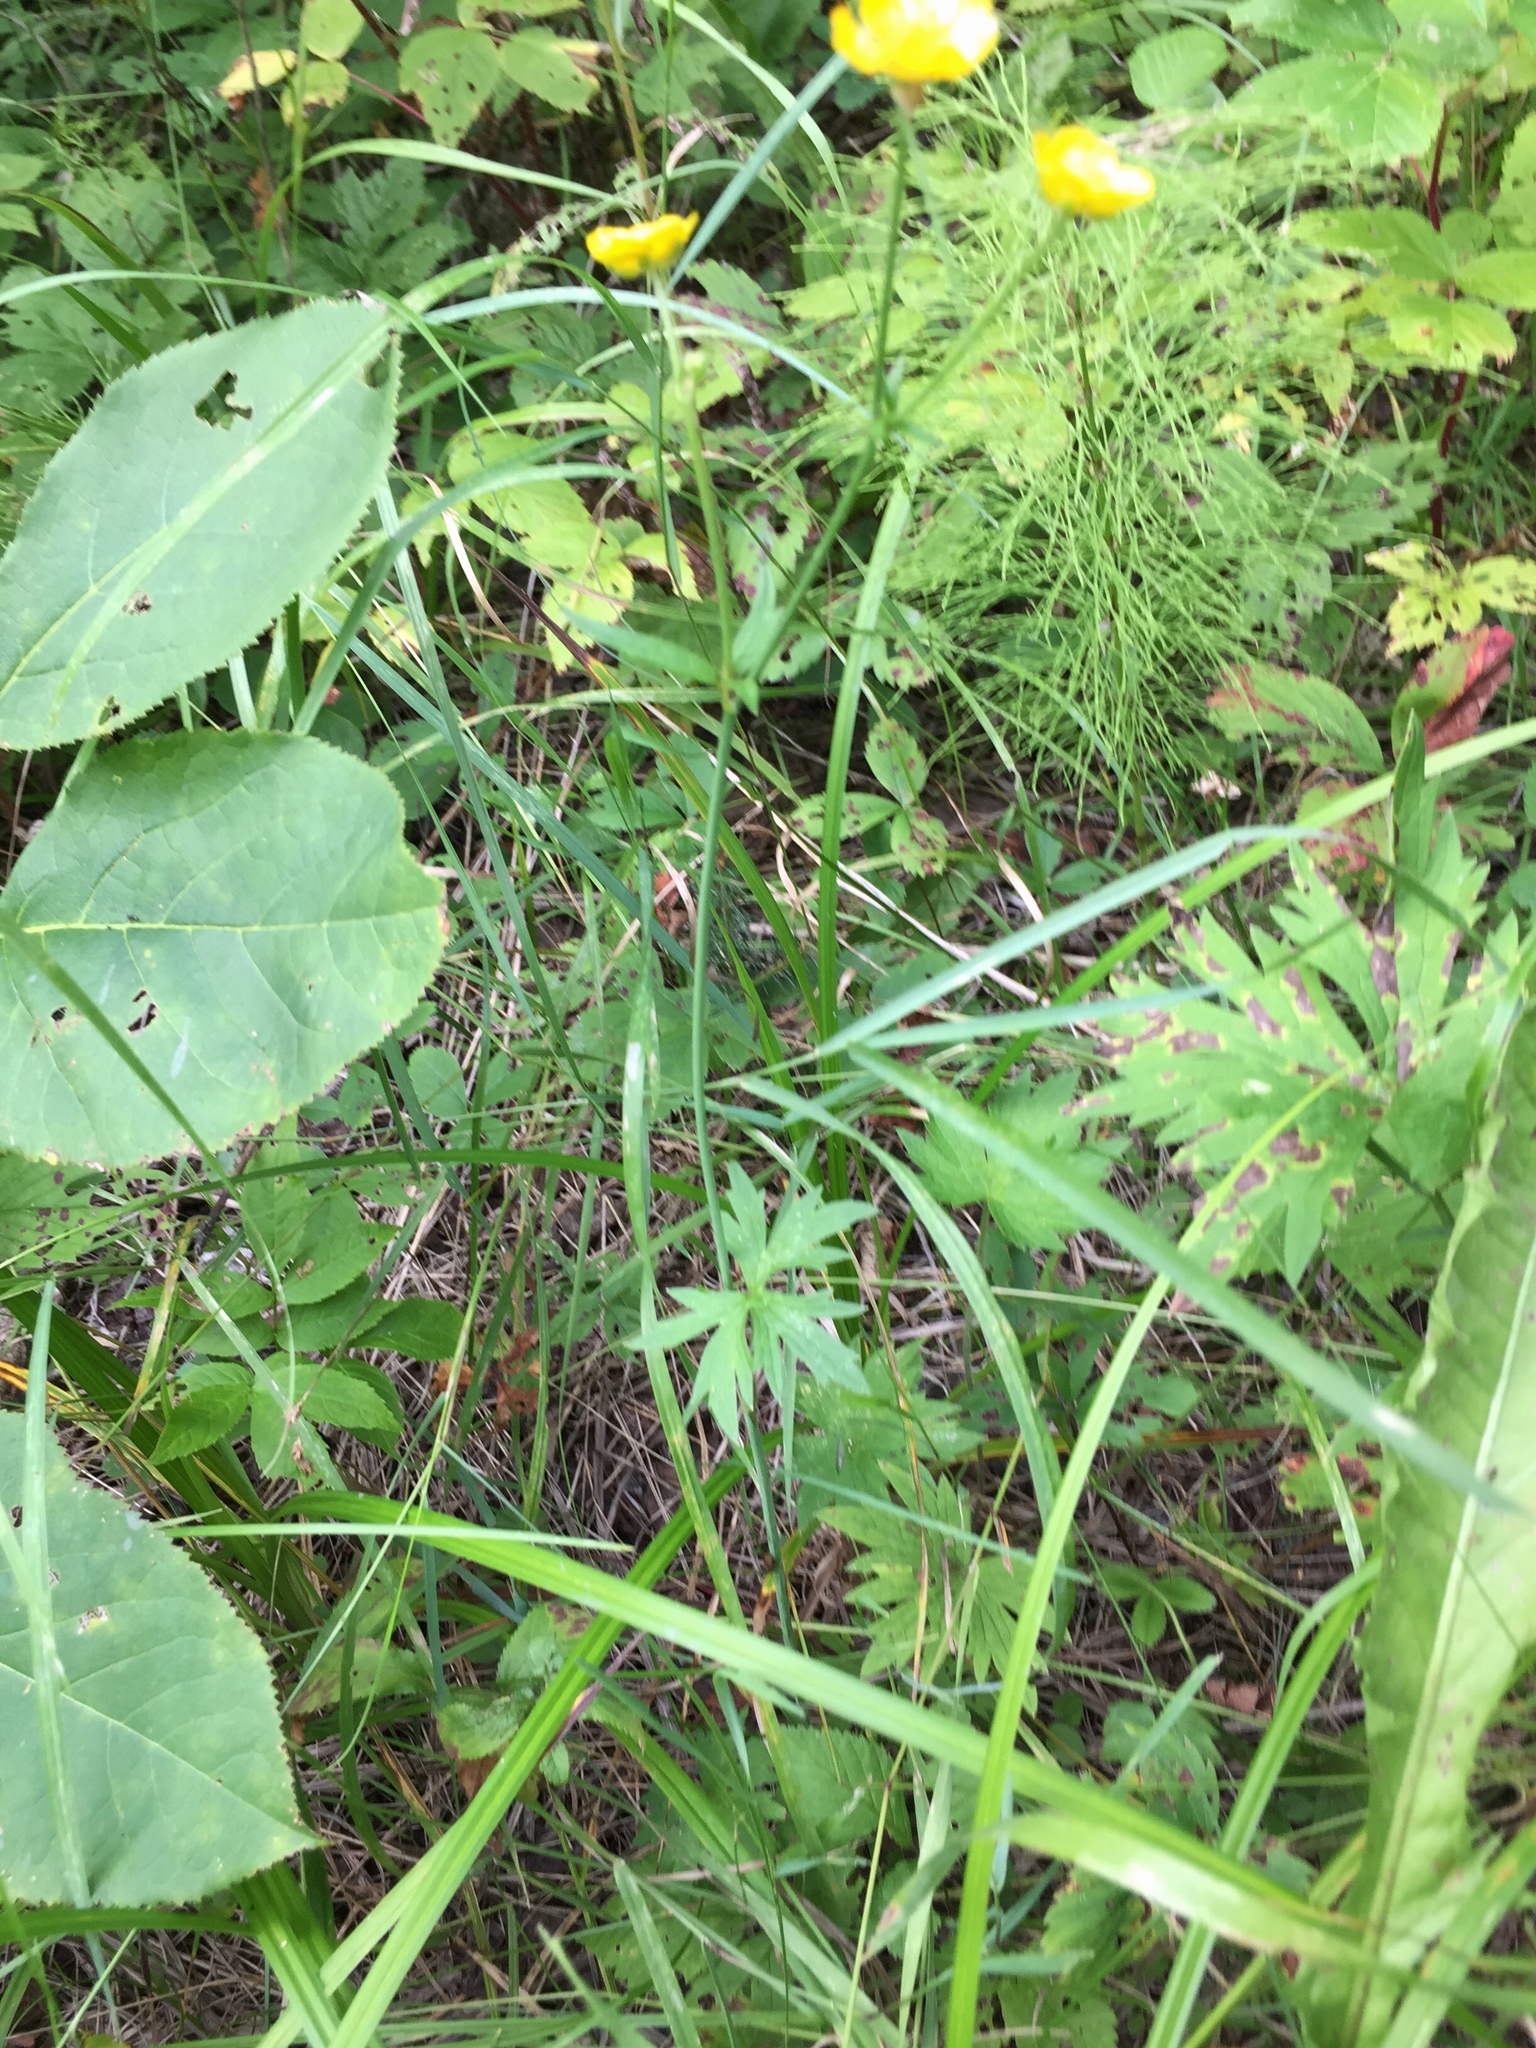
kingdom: Plantae
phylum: Tracheophyta
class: Magnoliopsida
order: Ranunculales
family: Ranunculaceae
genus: Ranunculus
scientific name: Ranunculus acris
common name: Meadow buttercup
